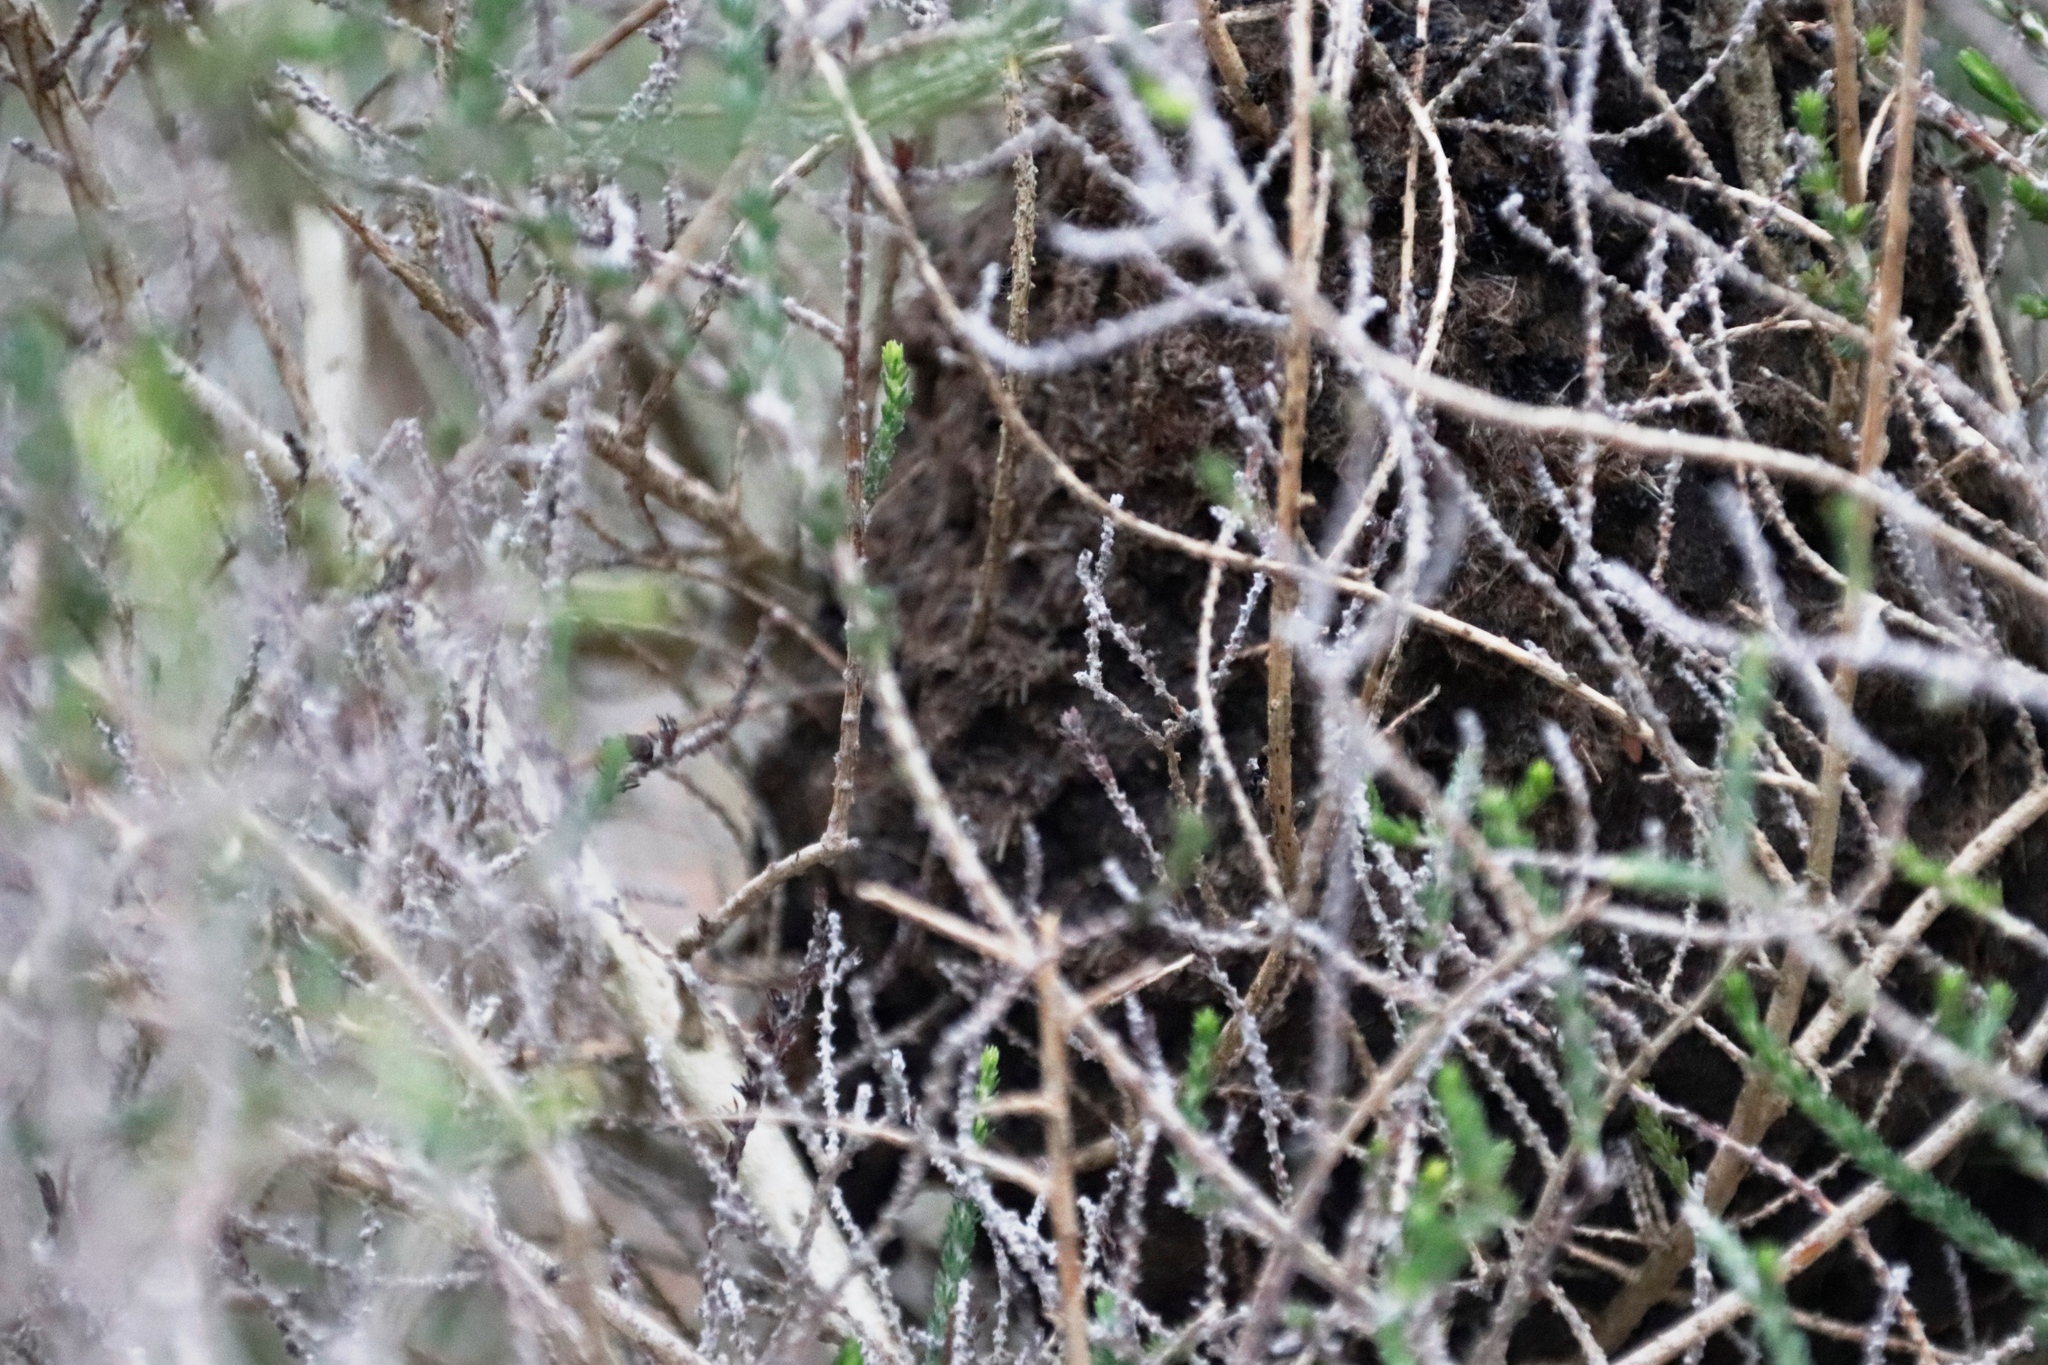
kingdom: Animalia
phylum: Arthropoda
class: Insecta
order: Hymenoptera
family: Formicidae
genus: Crematogaster
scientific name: Crematogaster peringueyi
